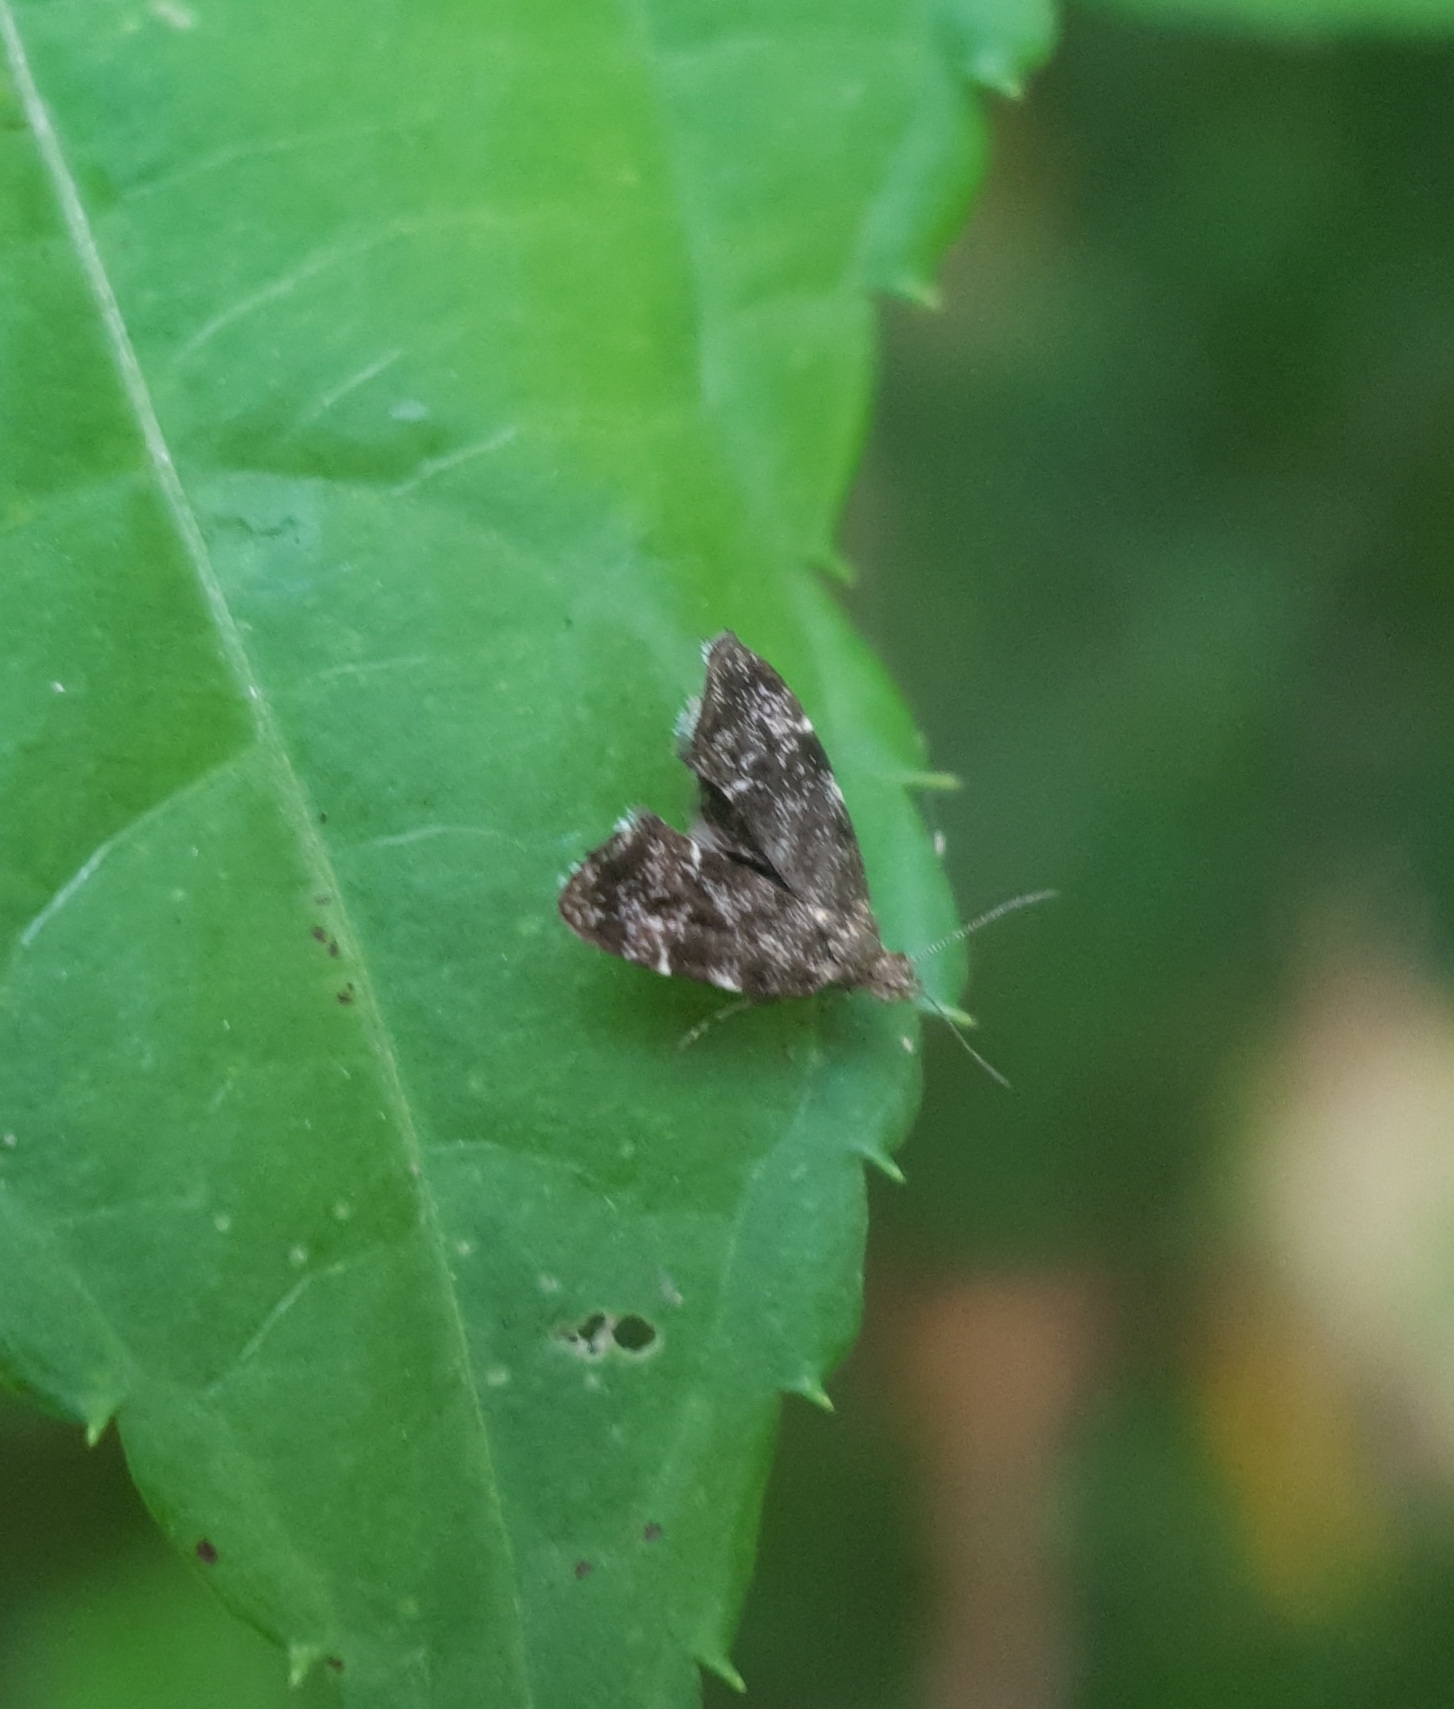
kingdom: Animalia
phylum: Arthropoda
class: Insecta
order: Lepidoptera
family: Choreutidae
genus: Anthophila
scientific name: Anthophila fabriciana
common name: Nettle-tap
